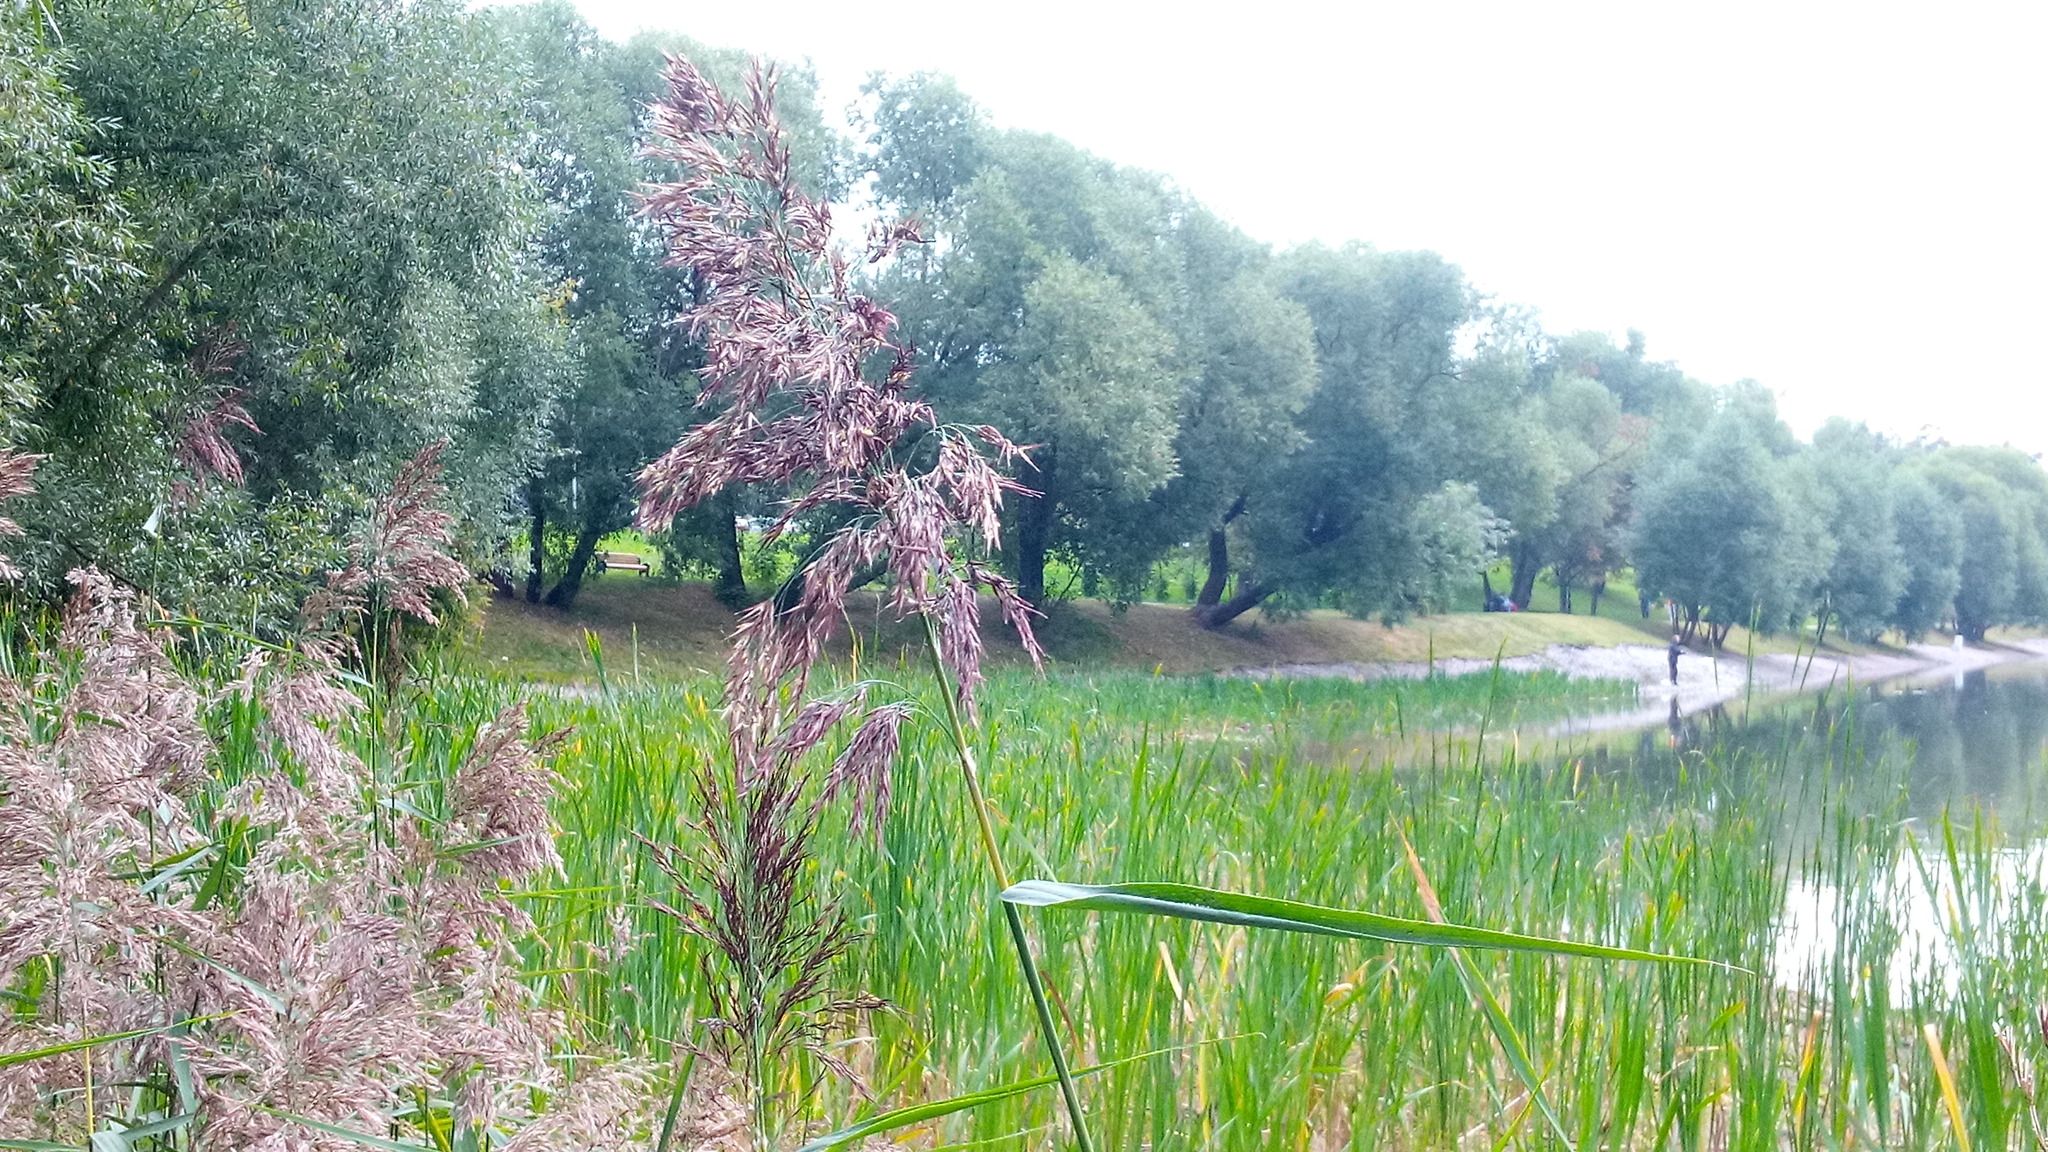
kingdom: Plantae
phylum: Tracheophyta
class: Liliopsida
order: Poales
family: Poaceae
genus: Phragmites
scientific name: Phragmites australis
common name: Common reed
